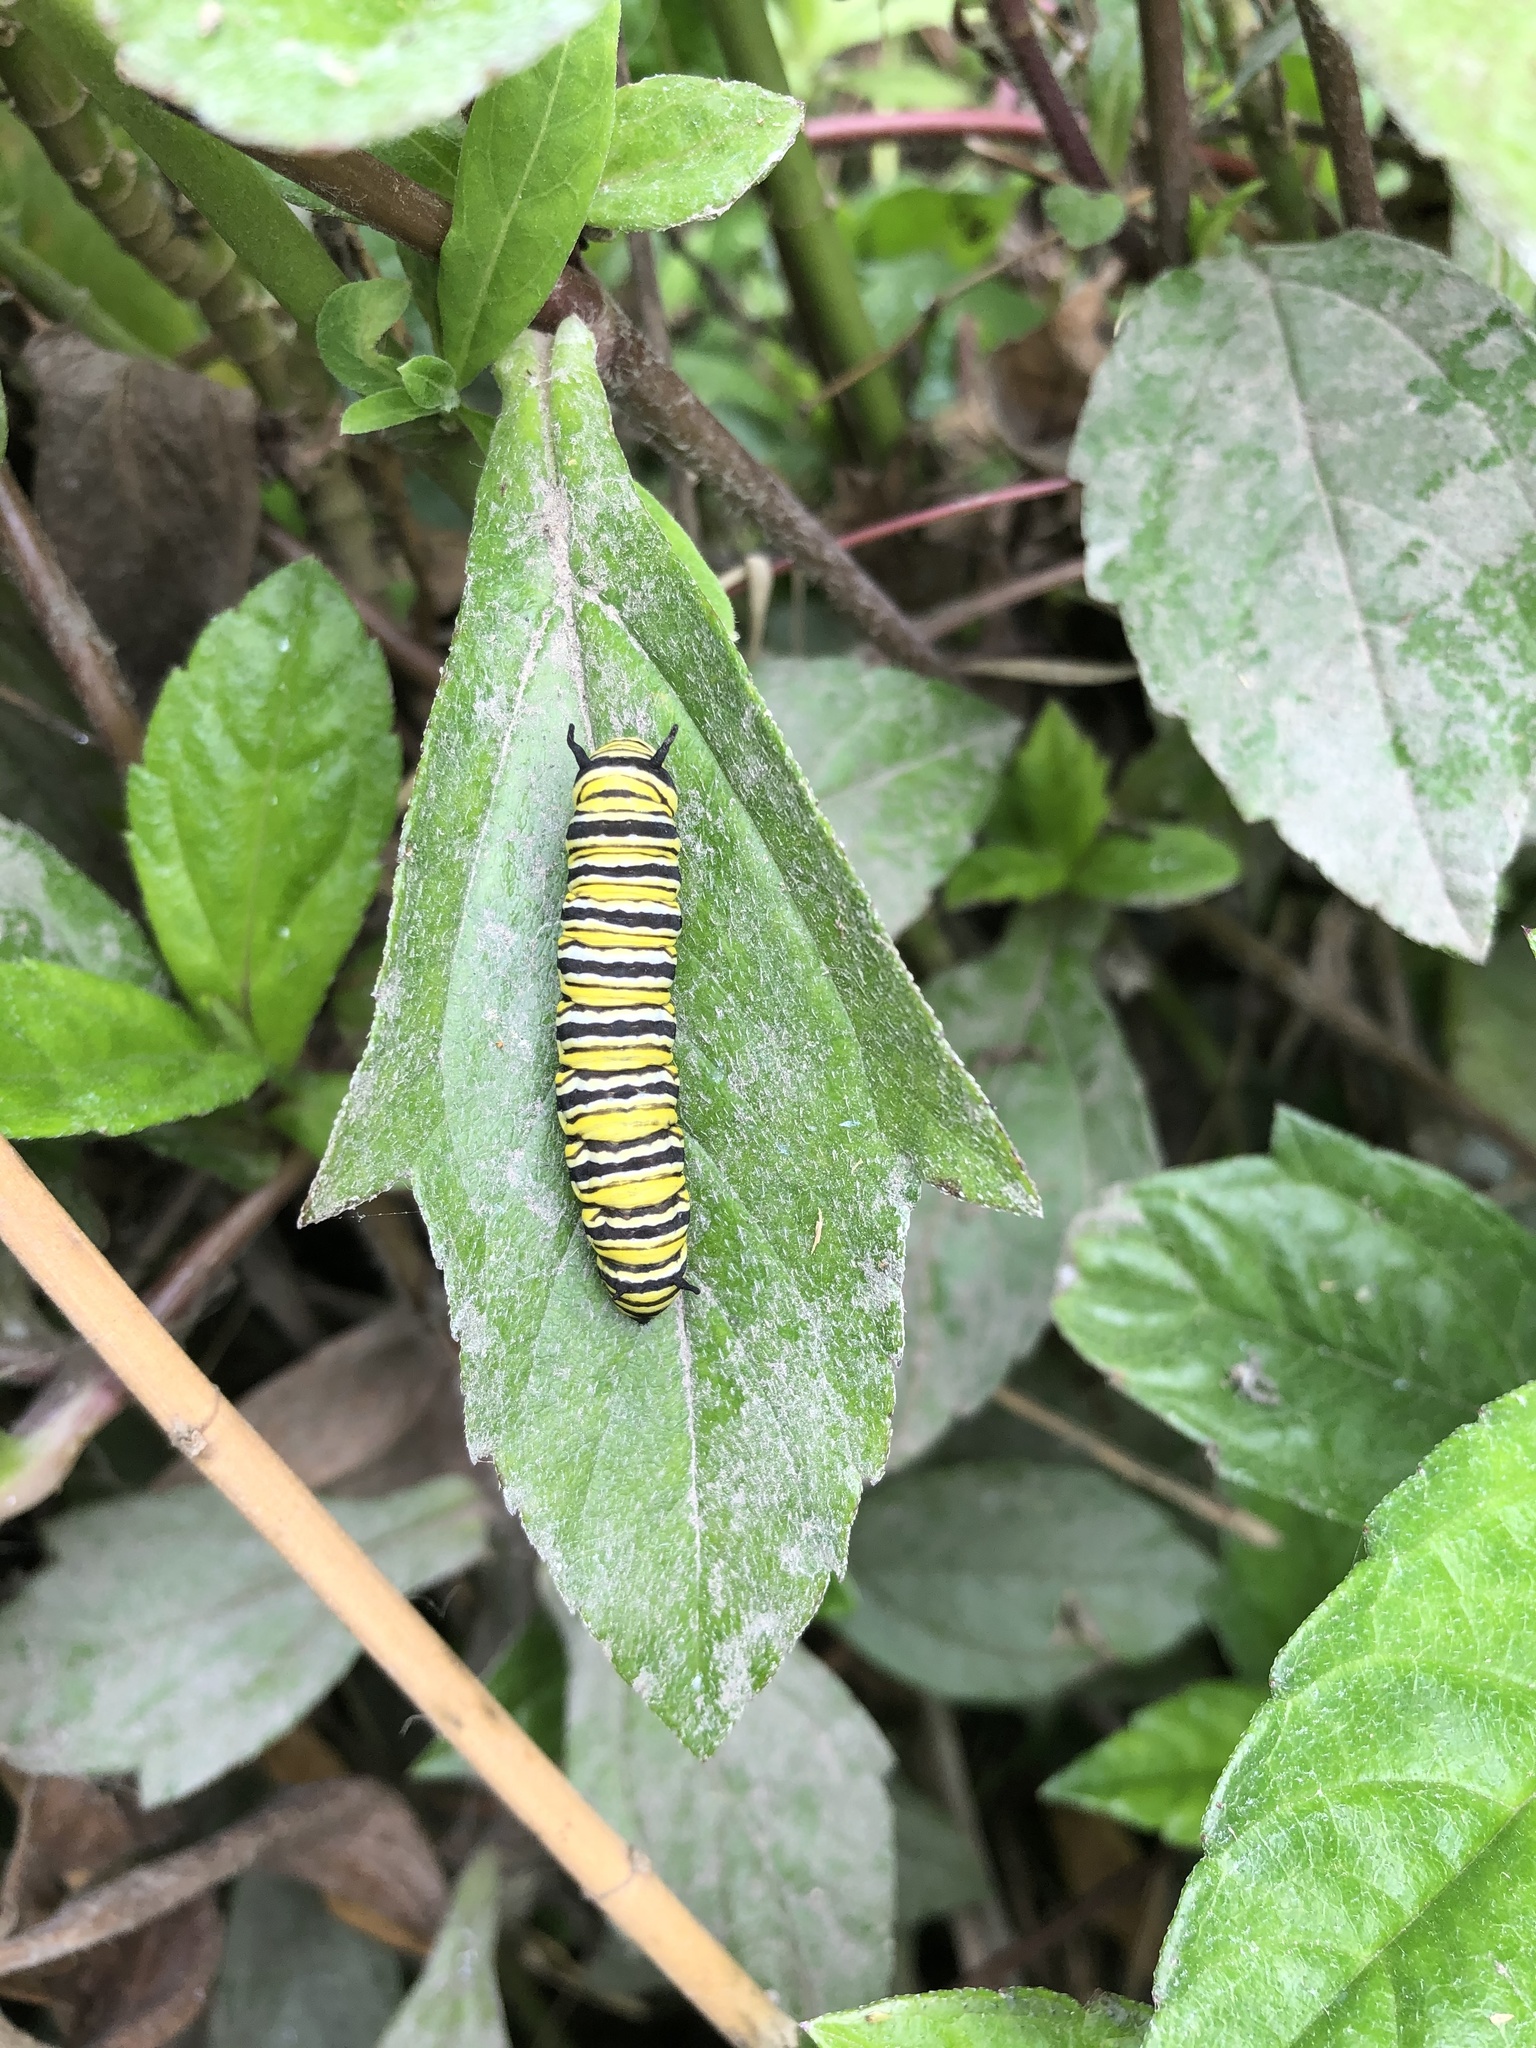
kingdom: Animalia
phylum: Arthropoda
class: Insecta
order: Lepidoptera
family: Nymphalidae
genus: Danaus
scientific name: Danaus plexippus
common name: Monarch
